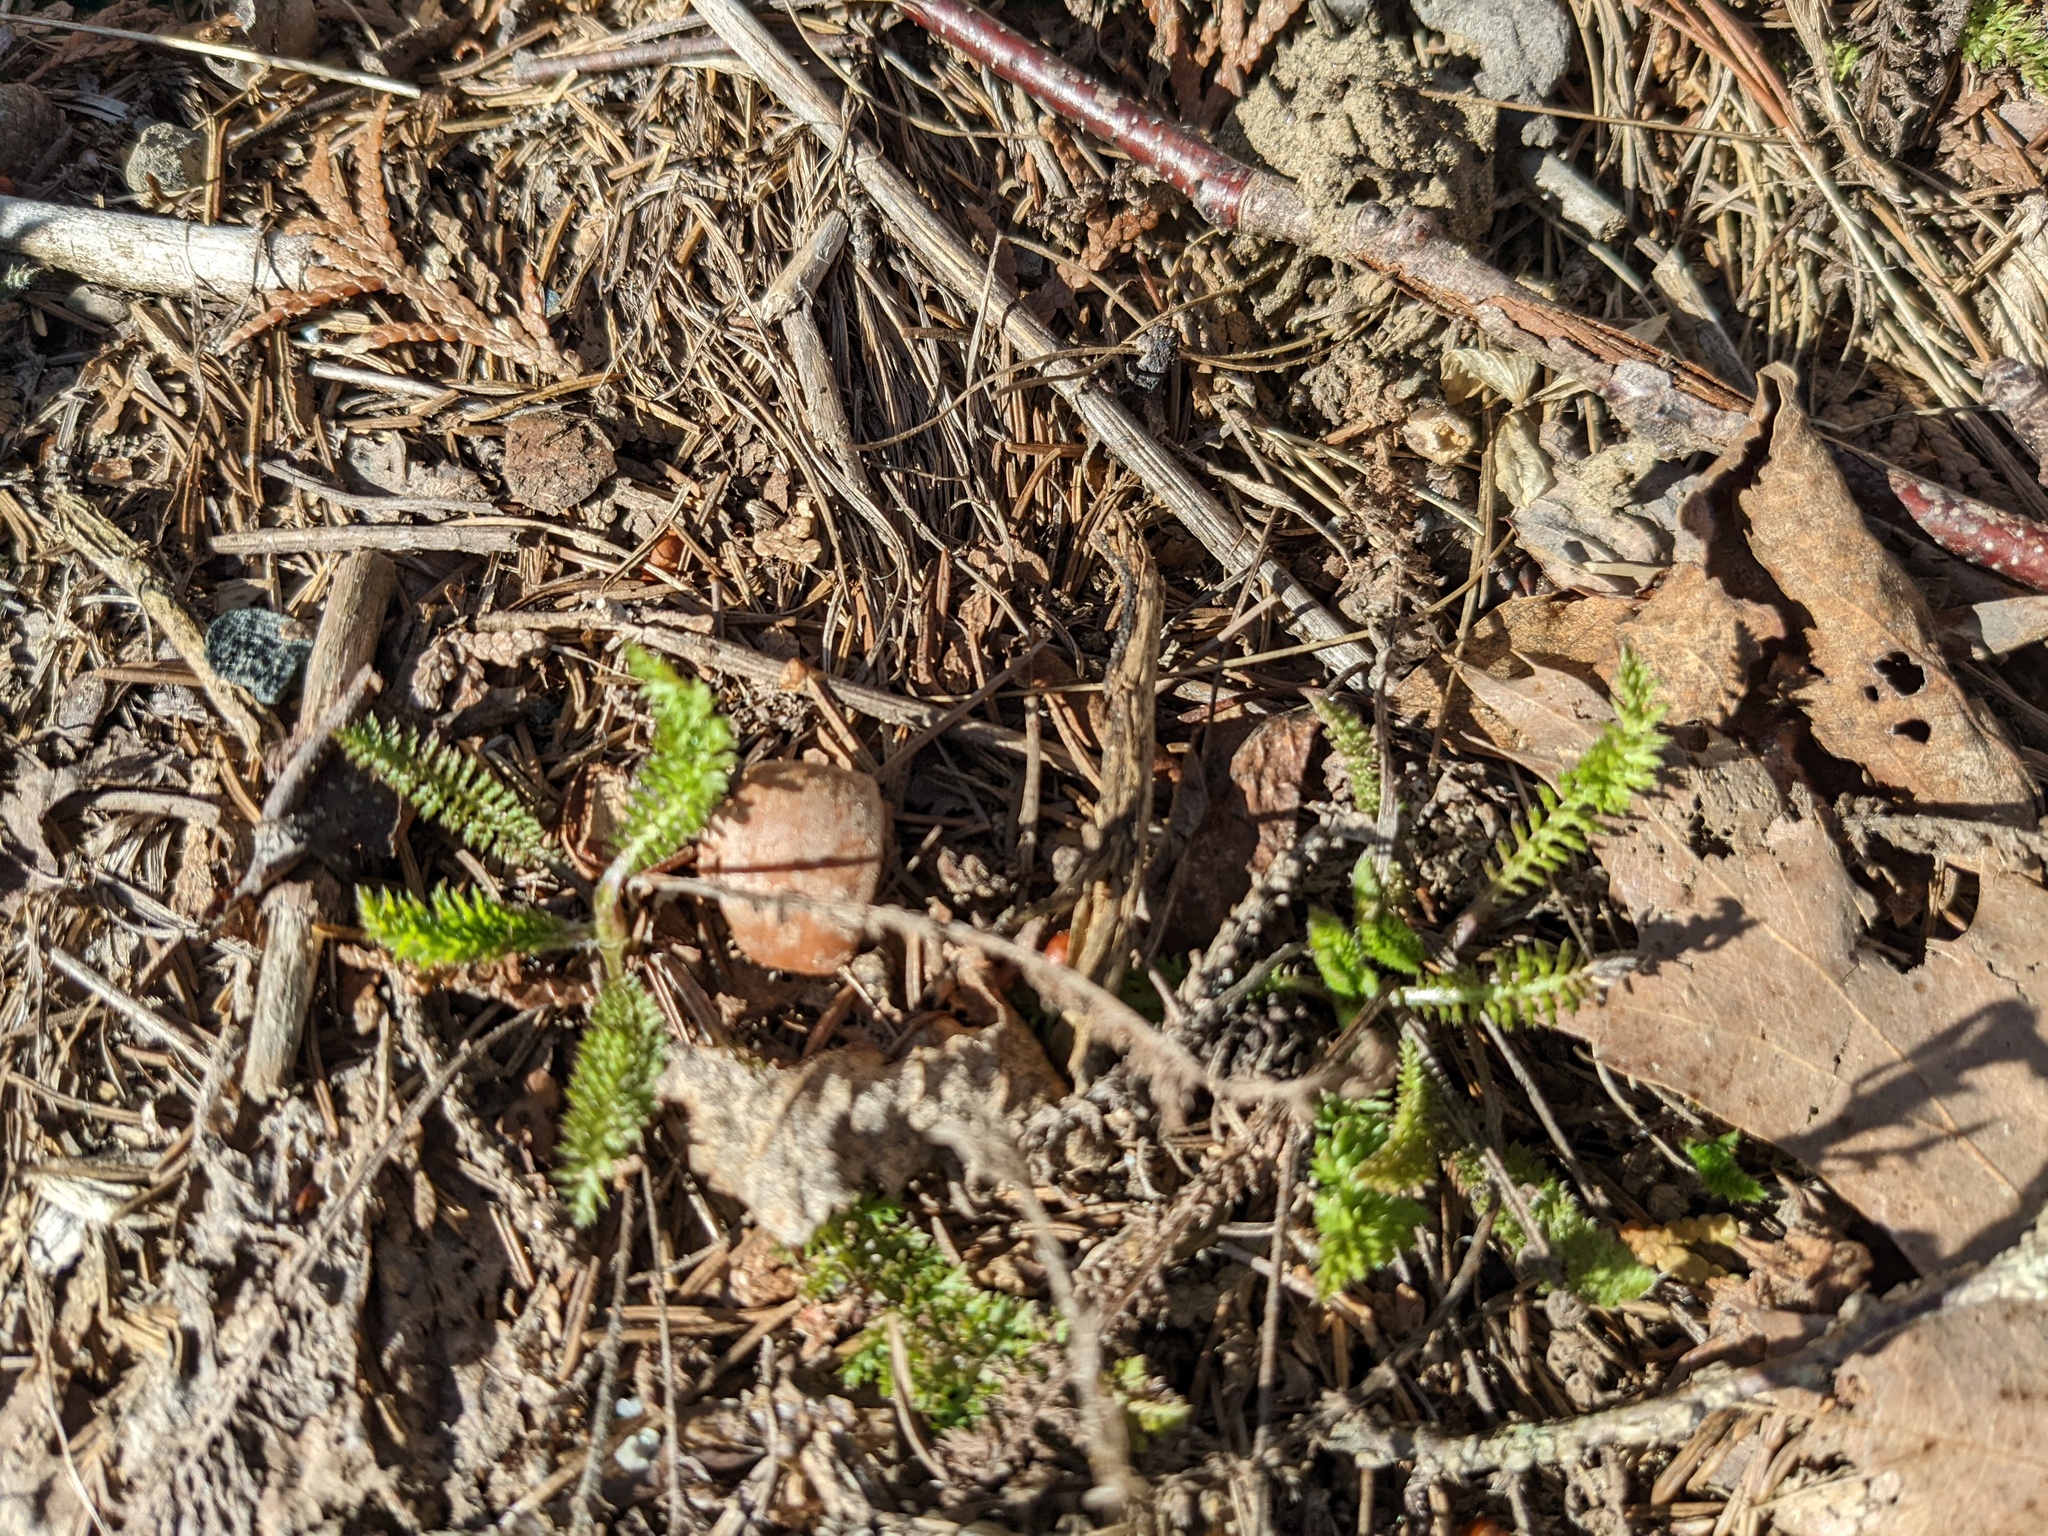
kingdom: Plantae
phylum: Tracheophyta
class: Magnoliopsida
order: Asterales
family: Asteraceae
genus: Achillea
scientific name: Achillea millefolium
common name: Yarrow
